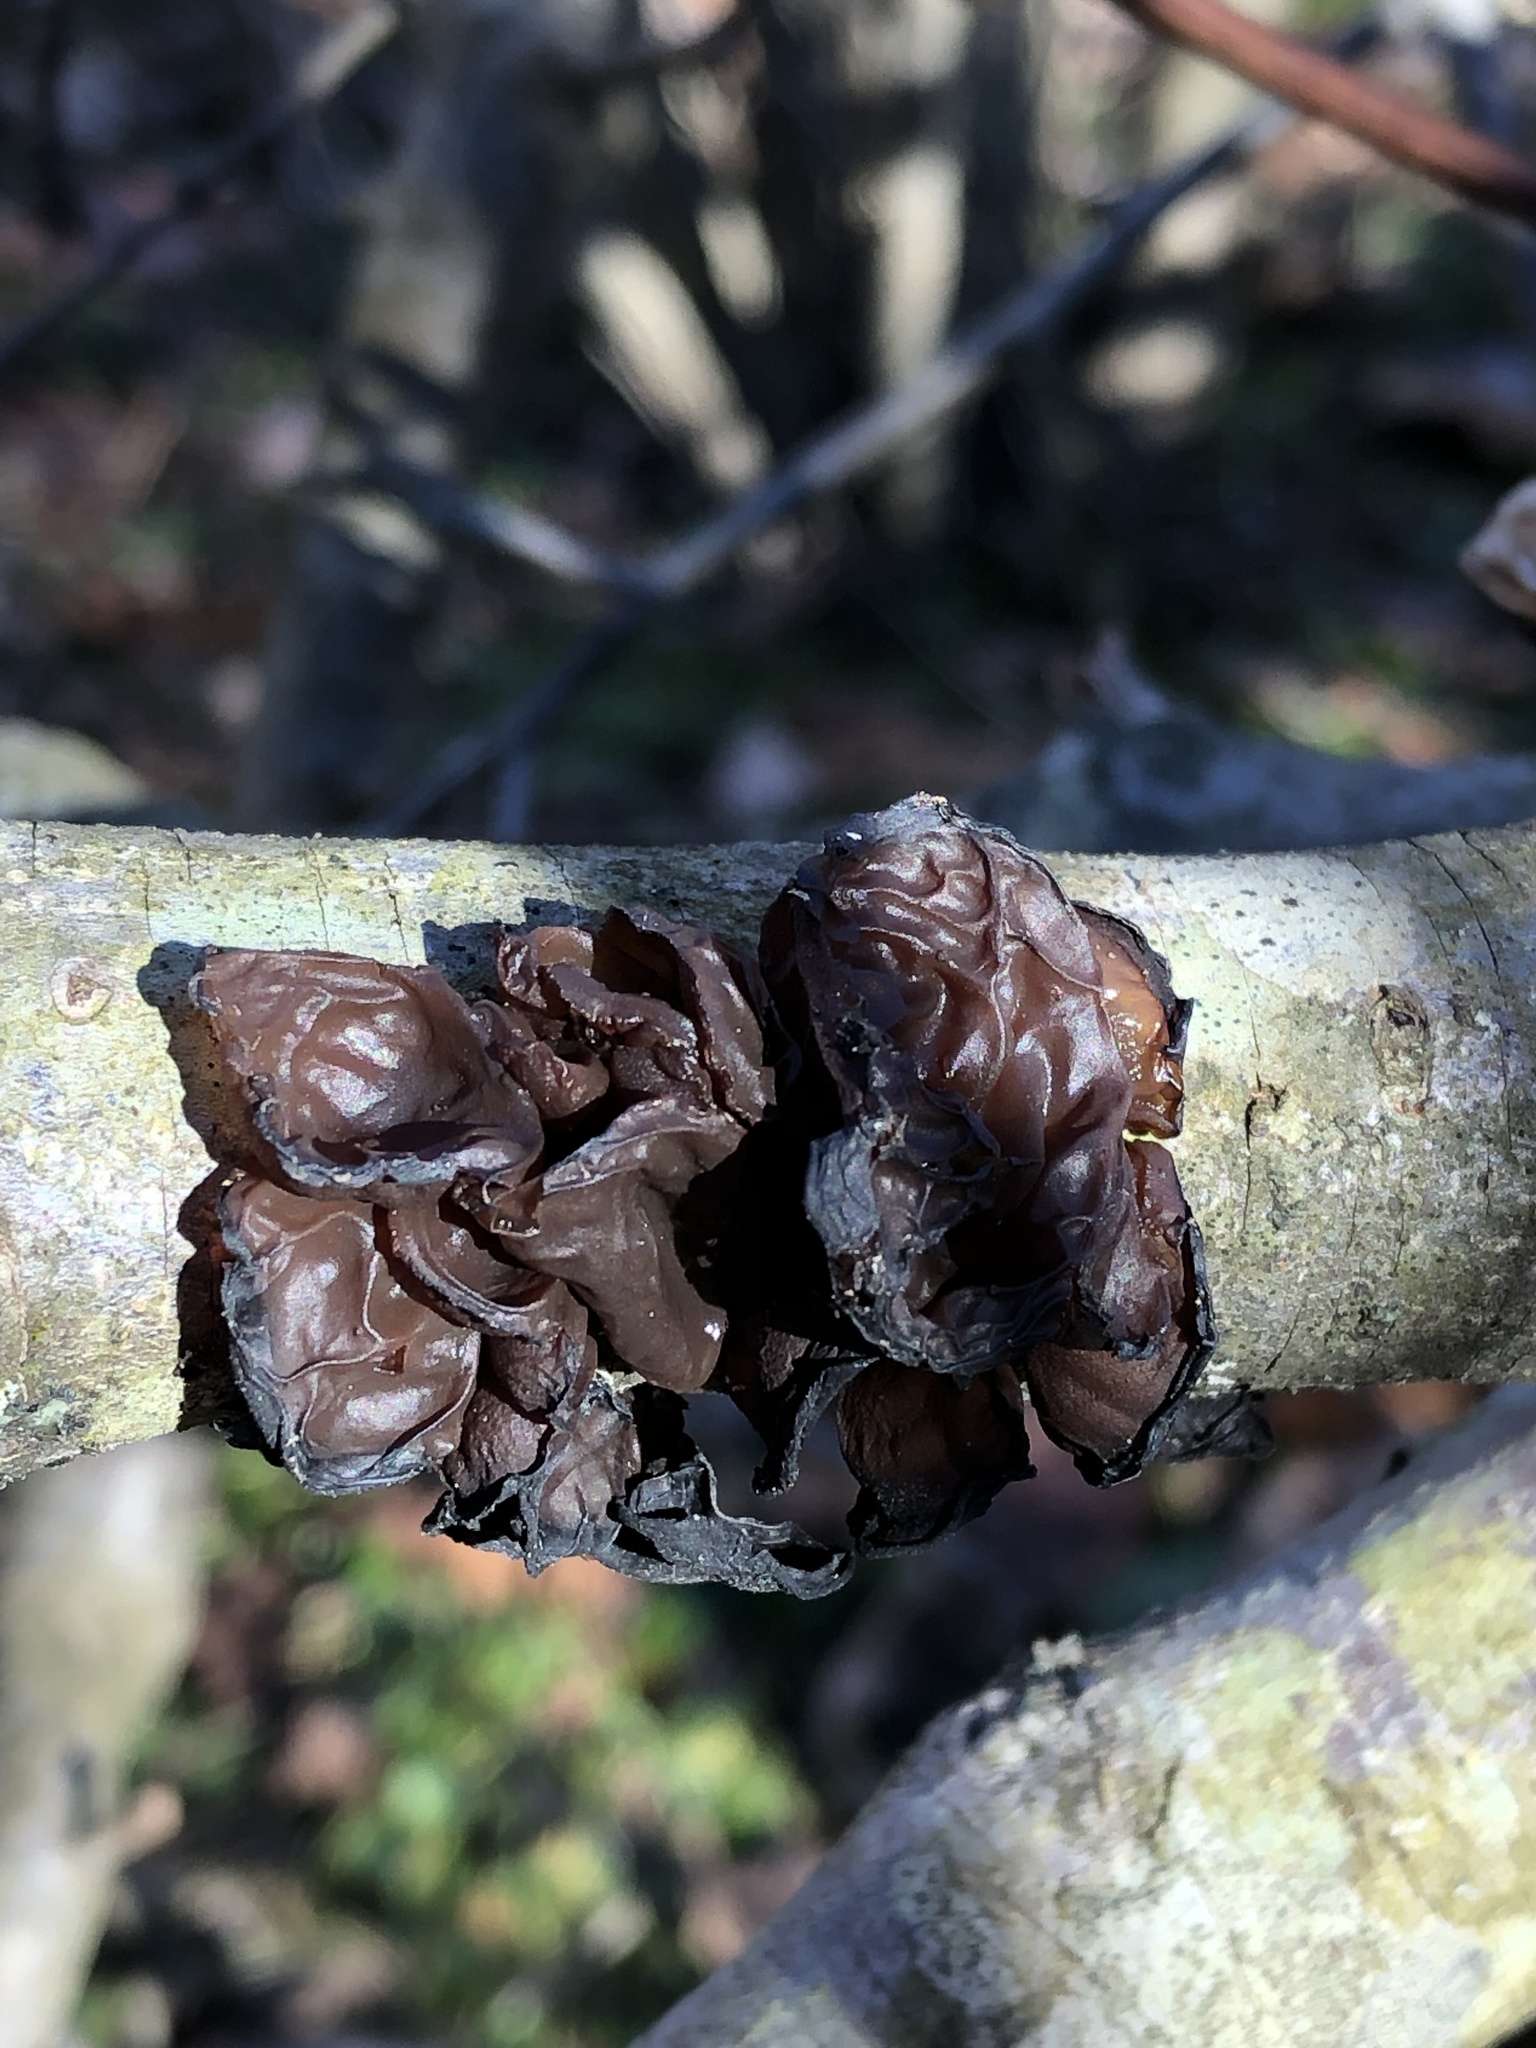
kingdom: Fungi
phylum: Basidiomycota
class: Agaricomycetes
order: Auriculariales
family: Auriculariaceae
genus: Exidia
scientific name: Exidia
